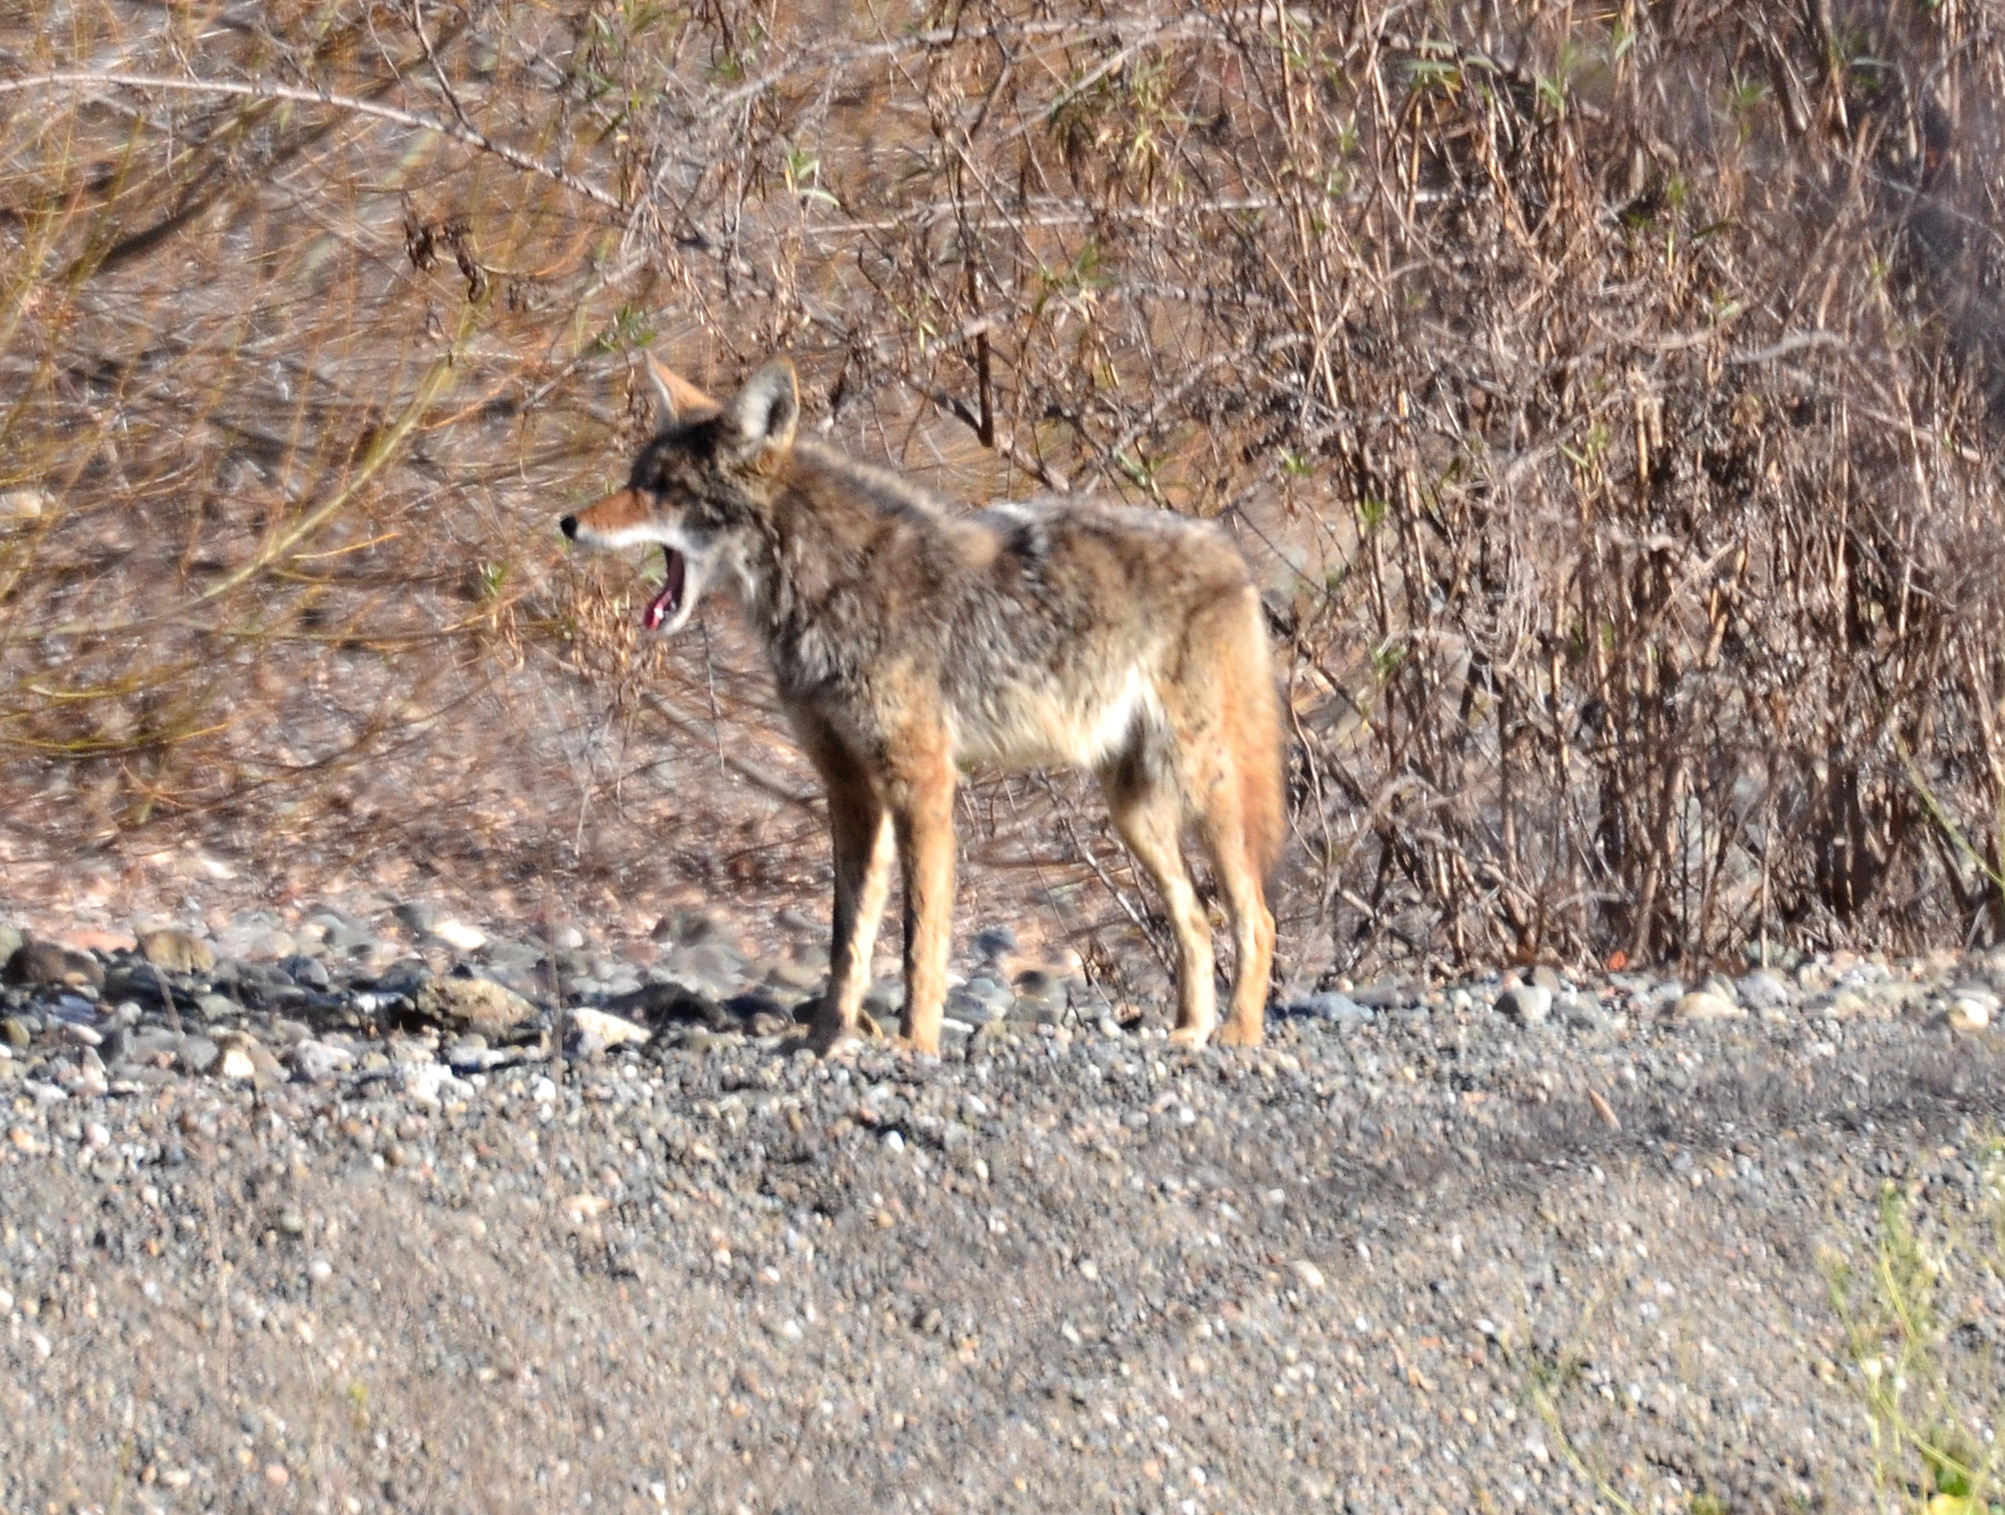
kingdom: Animalia
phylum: Chordata
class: Mammalia
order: Carnivora
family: Canidae
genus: Canis
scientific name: Canis latrans
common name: Coyote
